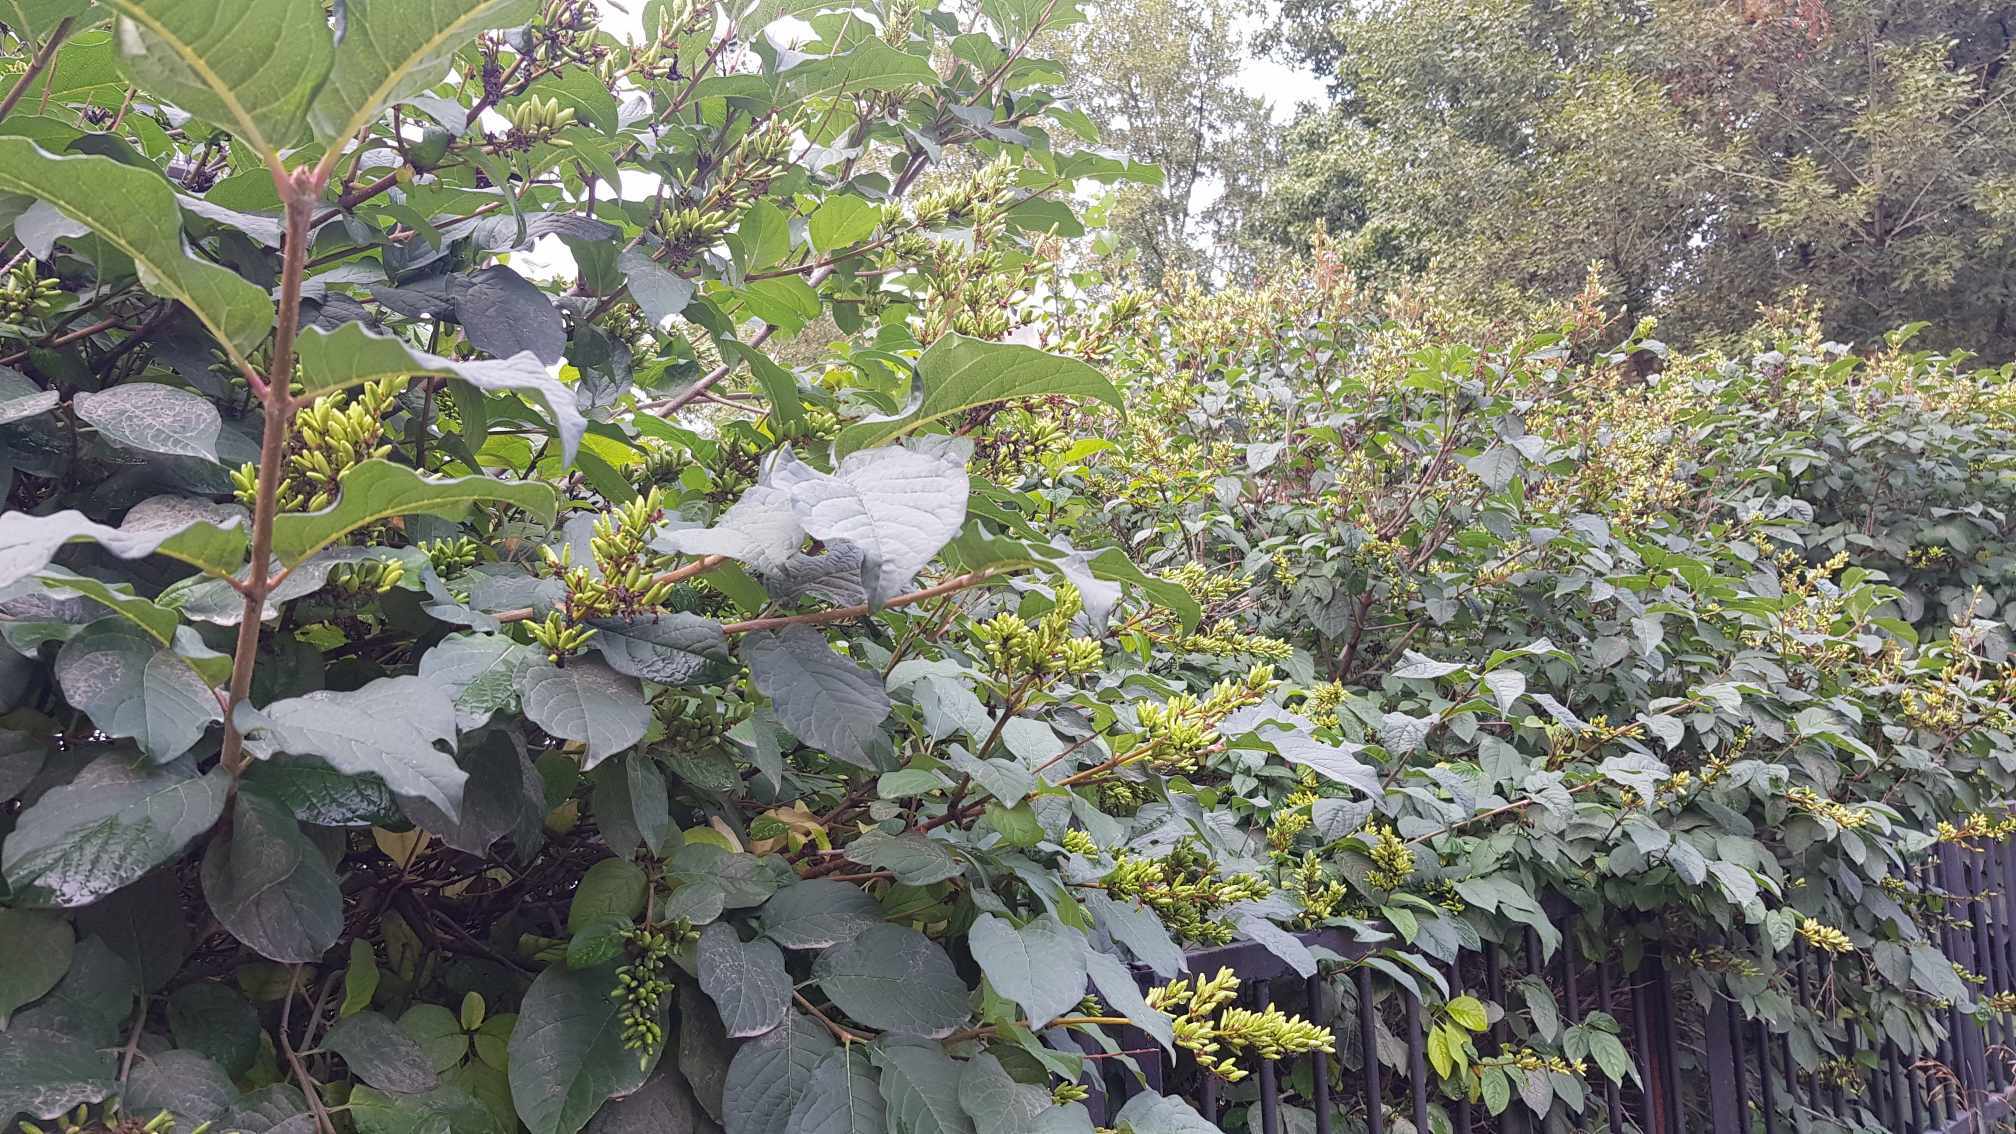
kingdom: Plantae
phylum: Tracheophyta
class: Magnoliopsida
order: Lamiales
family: Oleaceae
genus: Syringa
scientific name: Syringa josikaea
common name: Hungarian lilac
